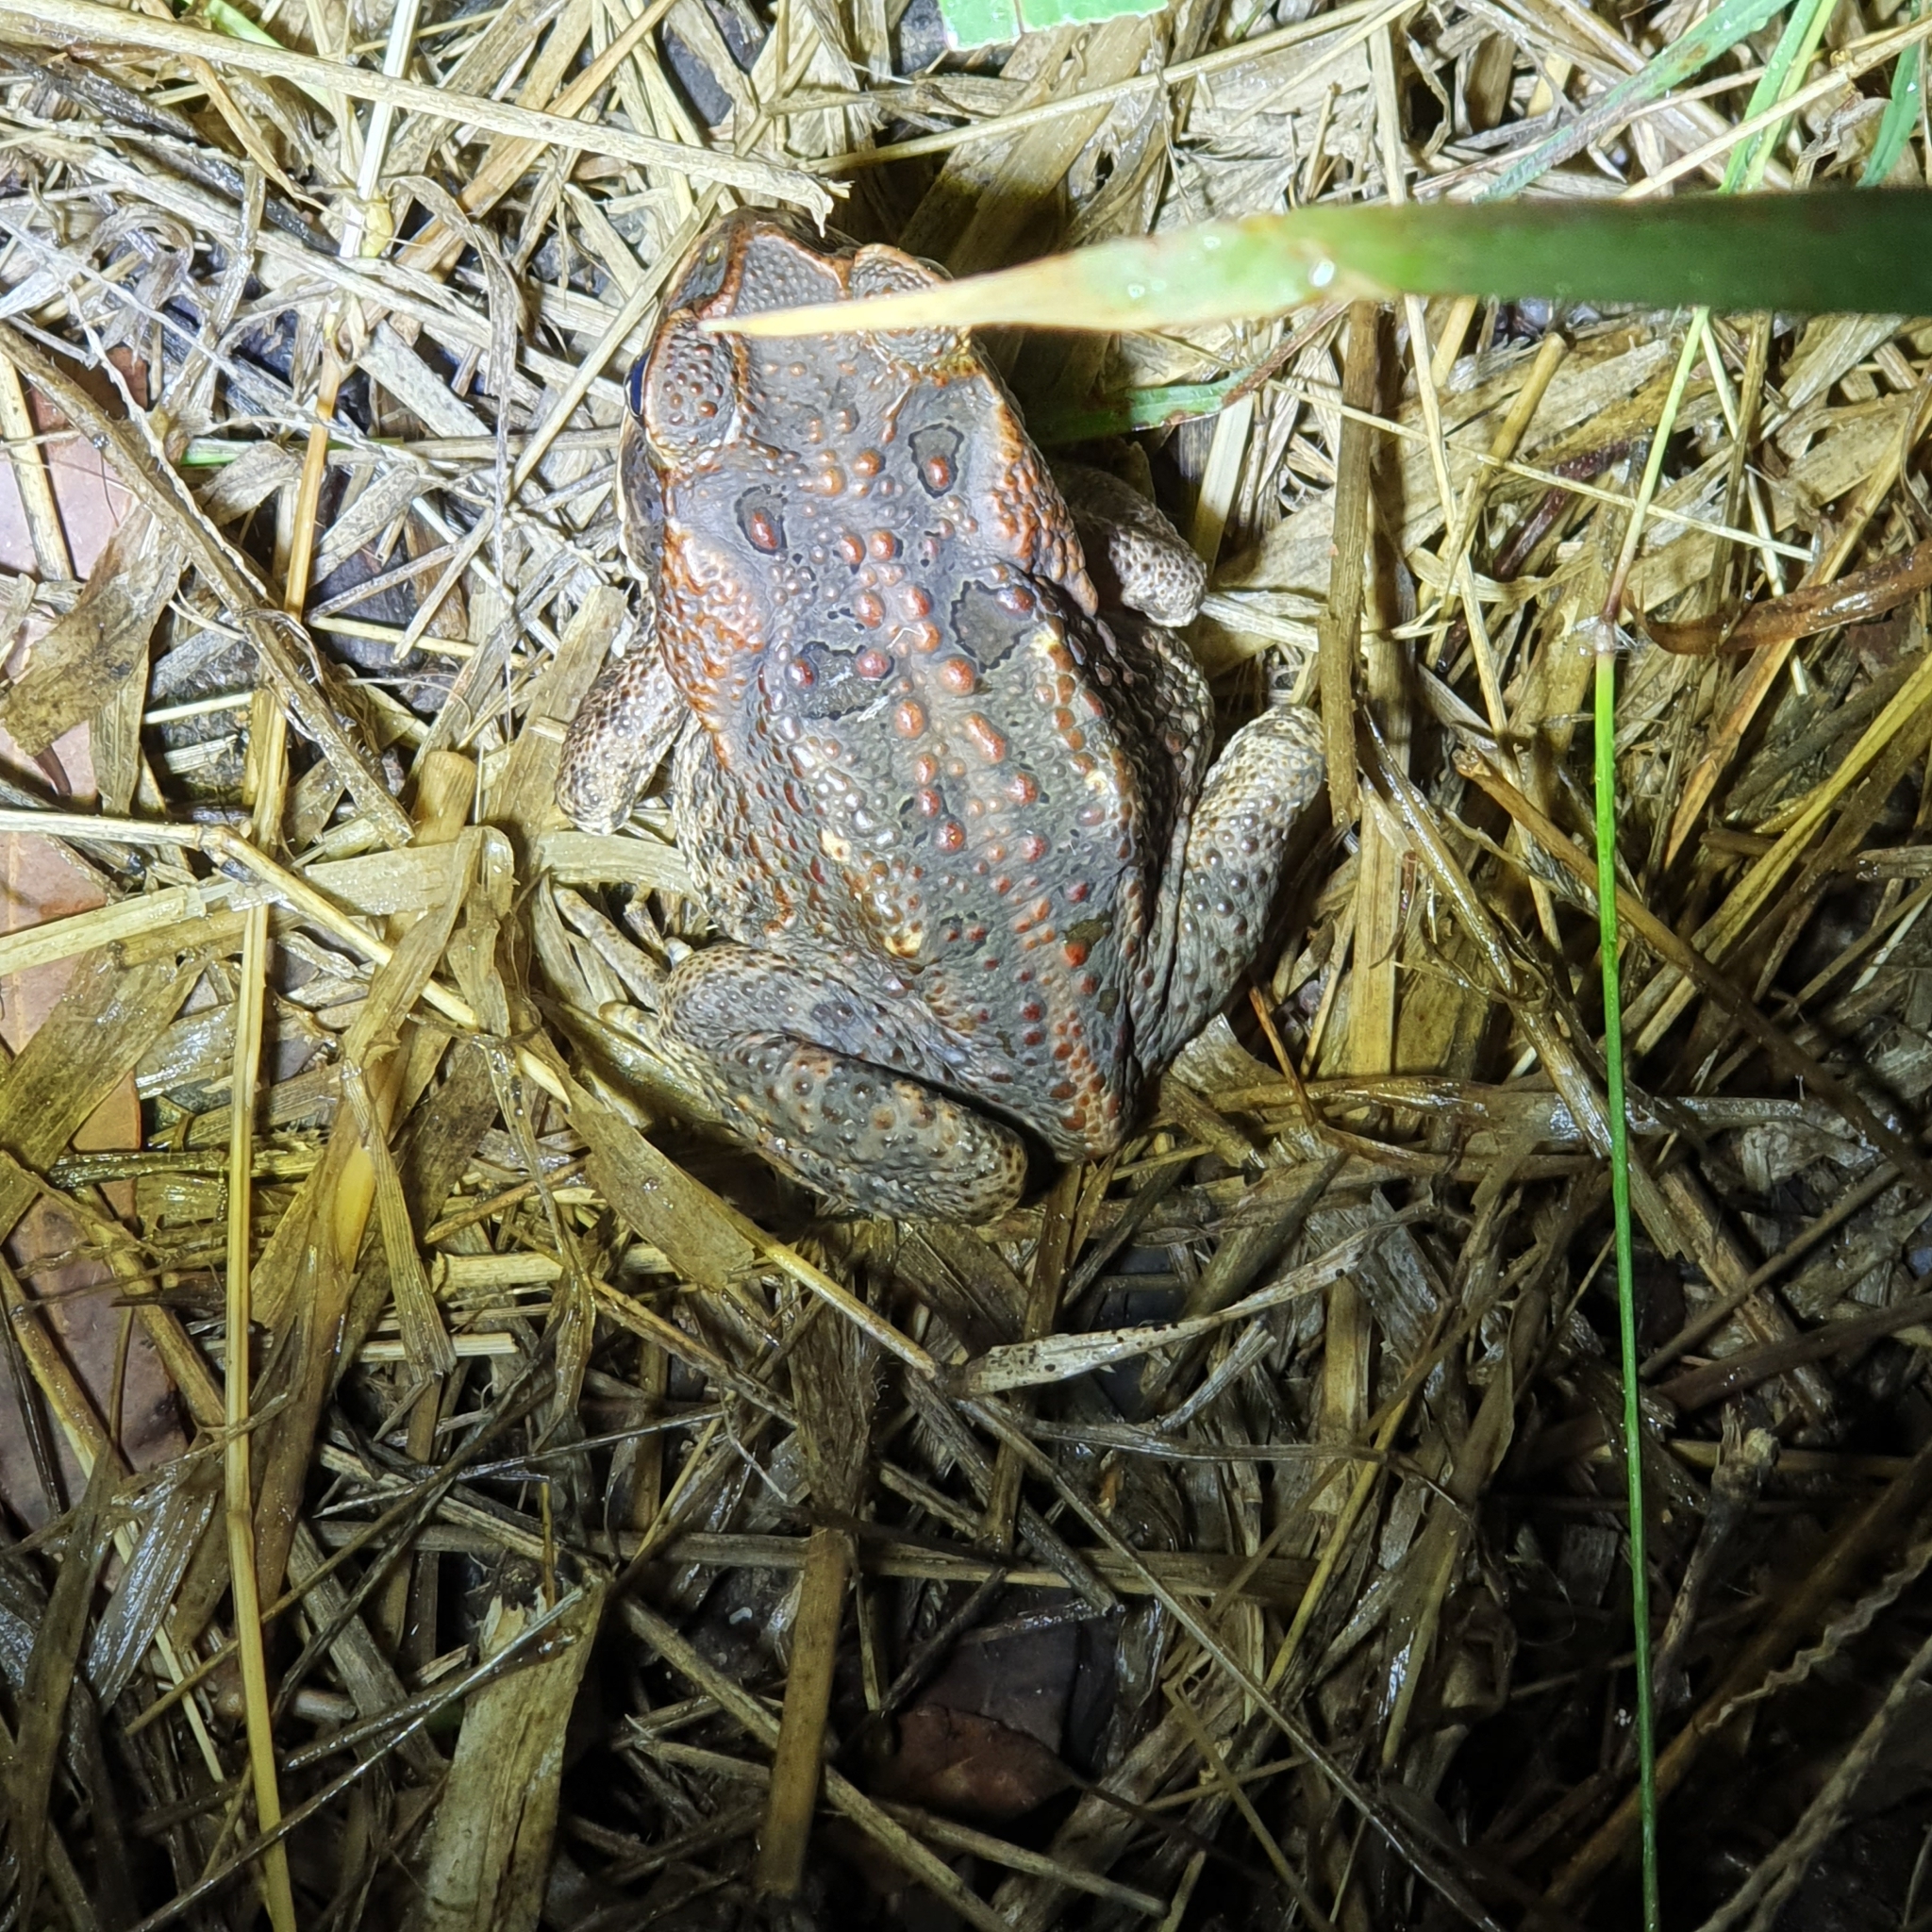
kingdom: Animalia
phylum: Chordata
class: Amphibia
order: Anura
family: Bufonidae
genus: Rhinella
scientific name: Rhinella marina
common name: Cane toad
